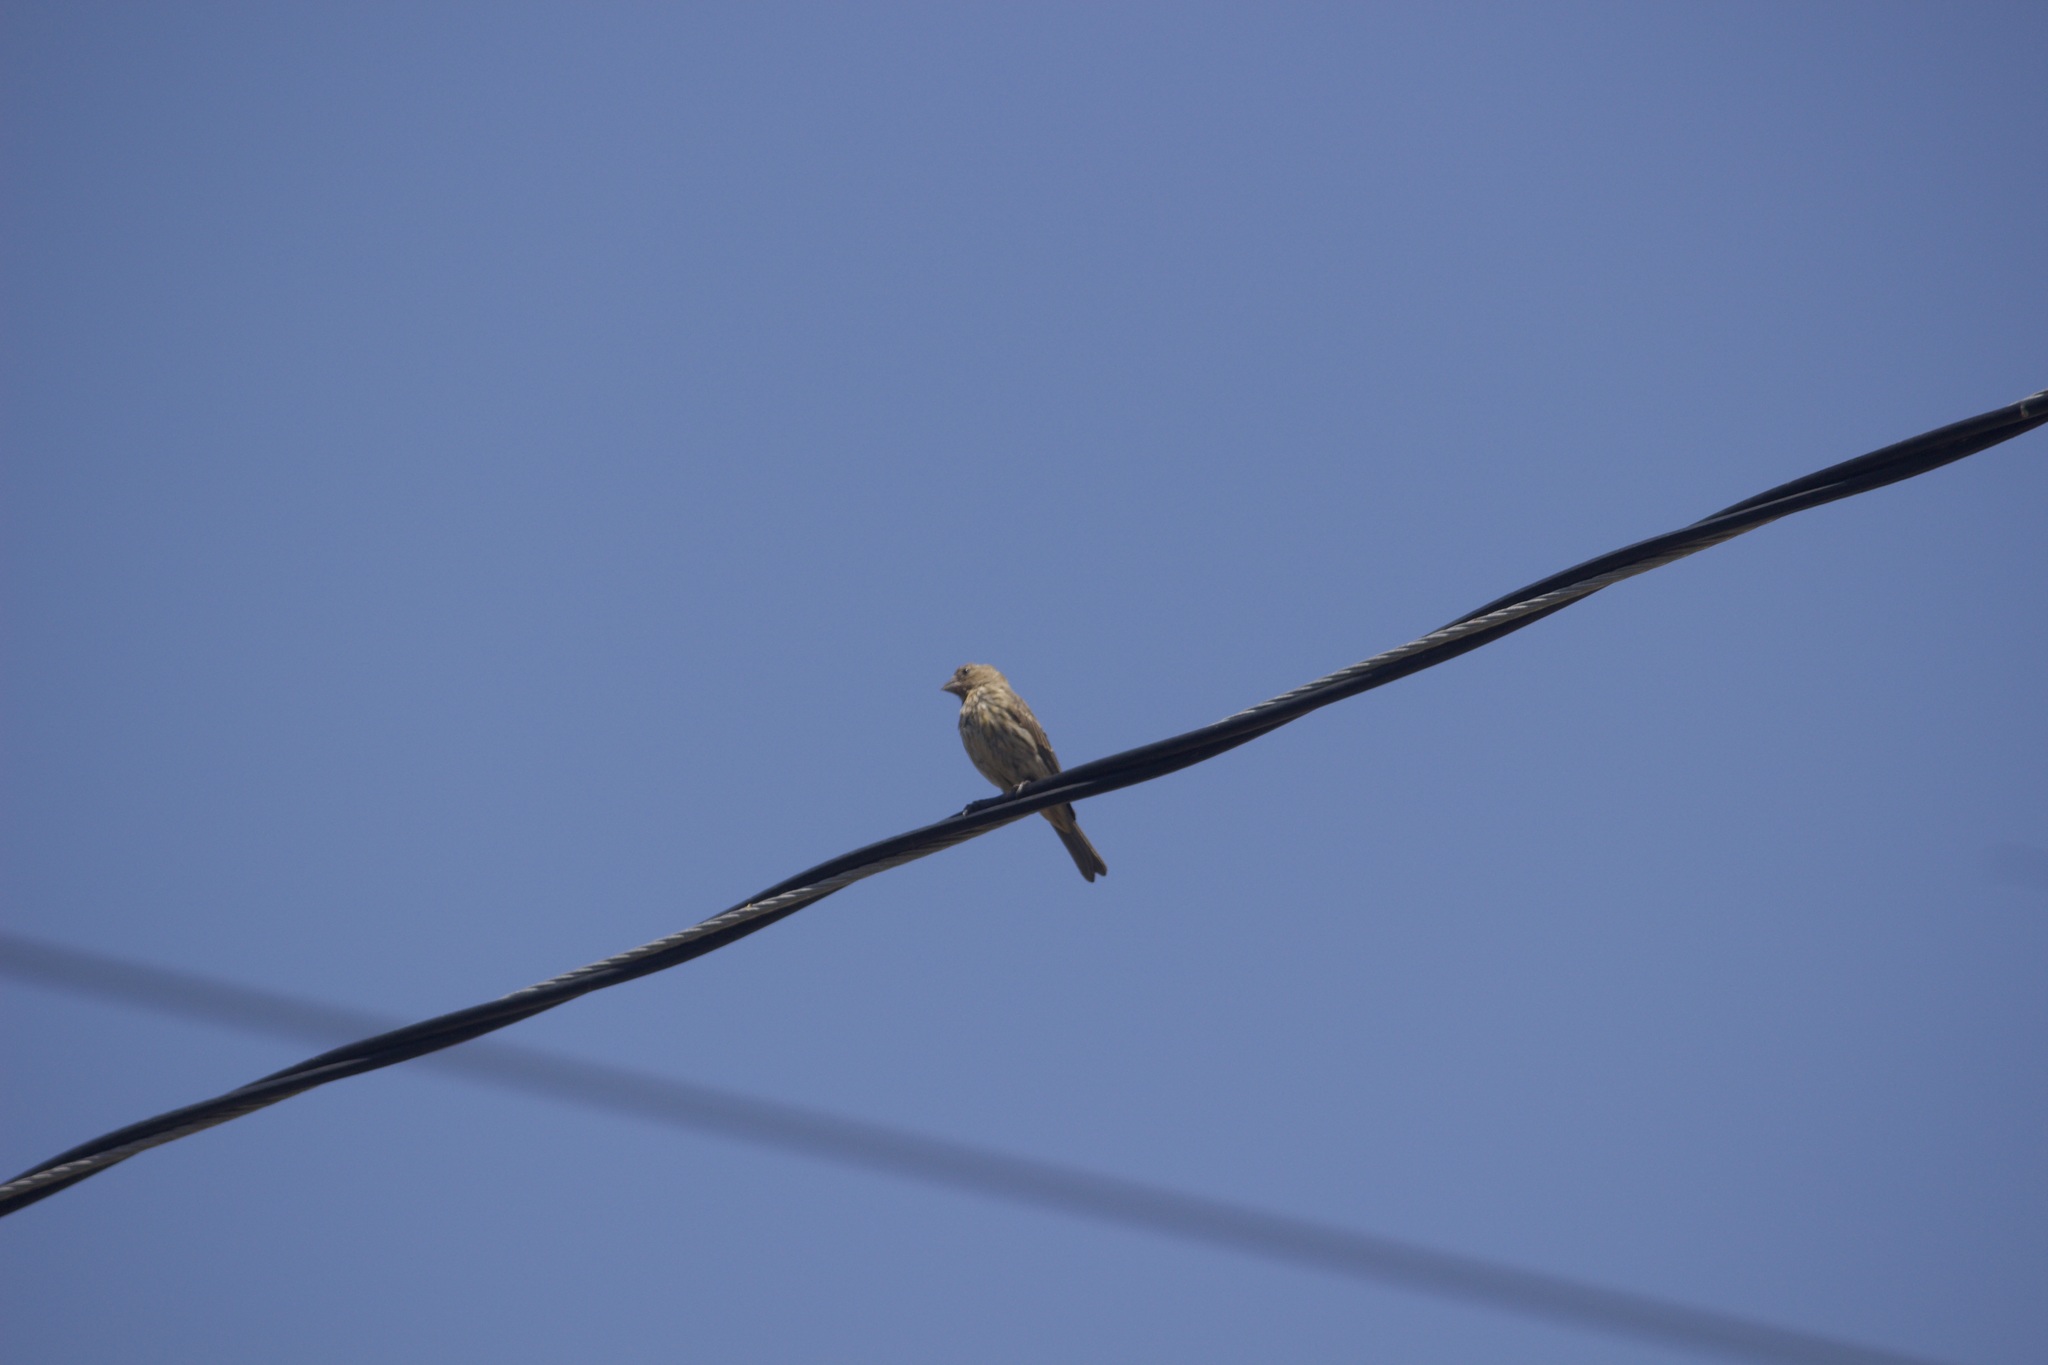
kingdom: Animalia
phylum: Chordata
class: Aves
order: Passeriformes
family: Fringillidae
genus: Haemorhous
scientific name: Haemorhous mexicanus
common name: House finch
